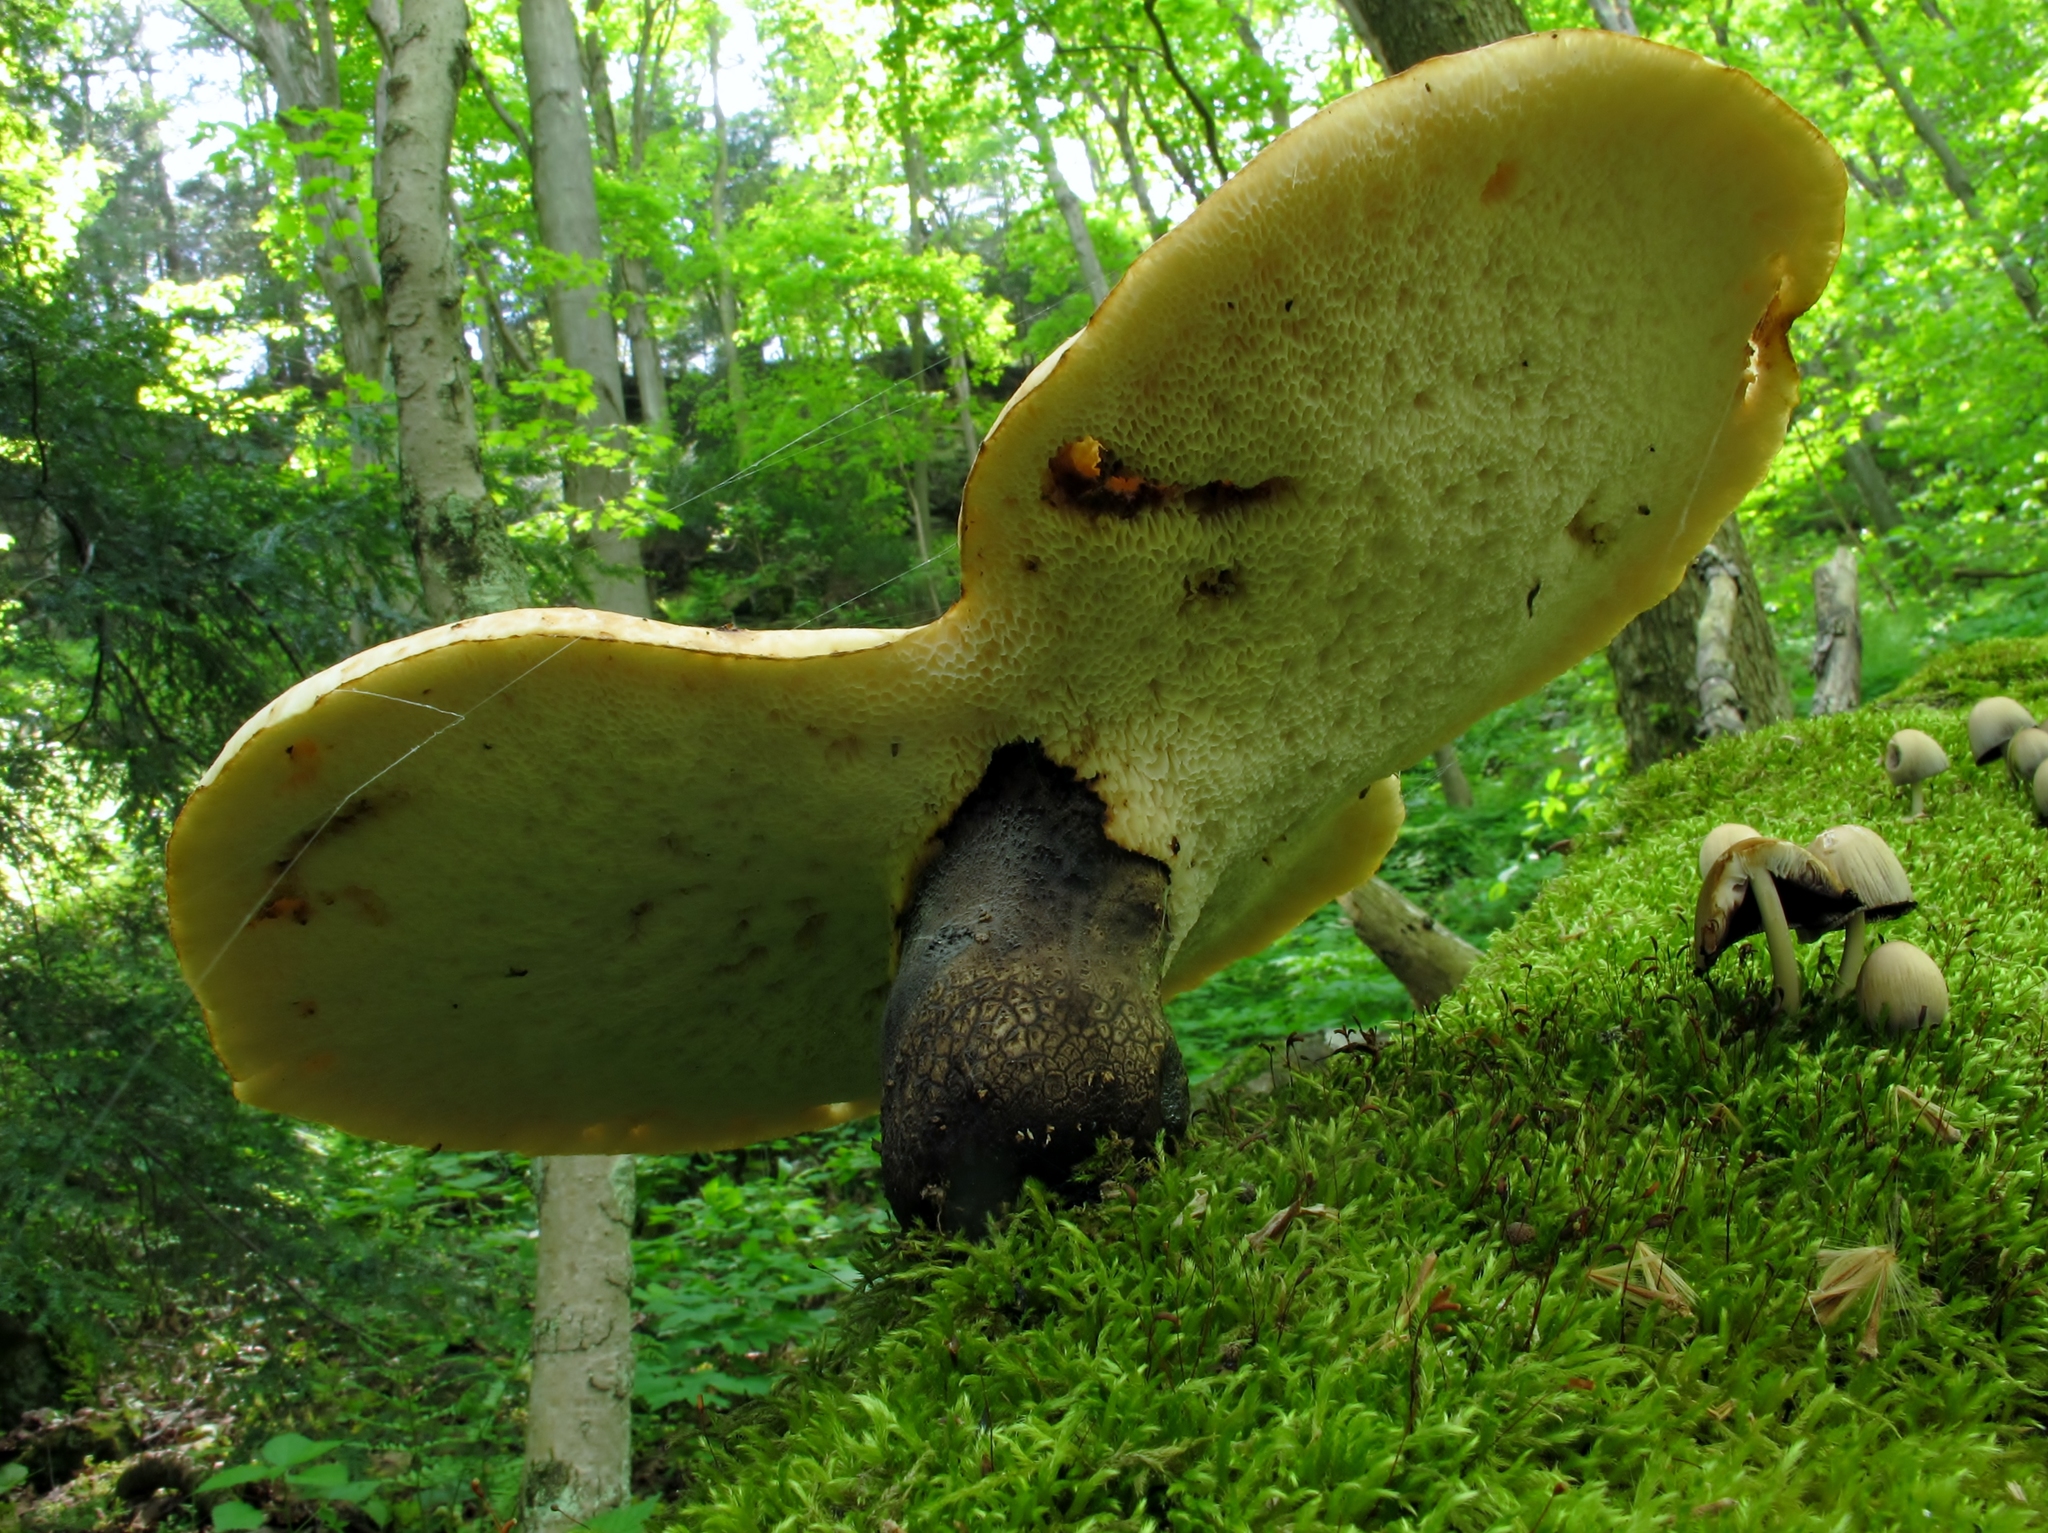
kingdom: Fungi
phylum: Basidiomycota
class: Agaricomycetes
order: Polyporales
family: Polyporaceae
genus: Cerioporus
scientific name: Cerioporus squamosus
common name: Dryad's saddle
